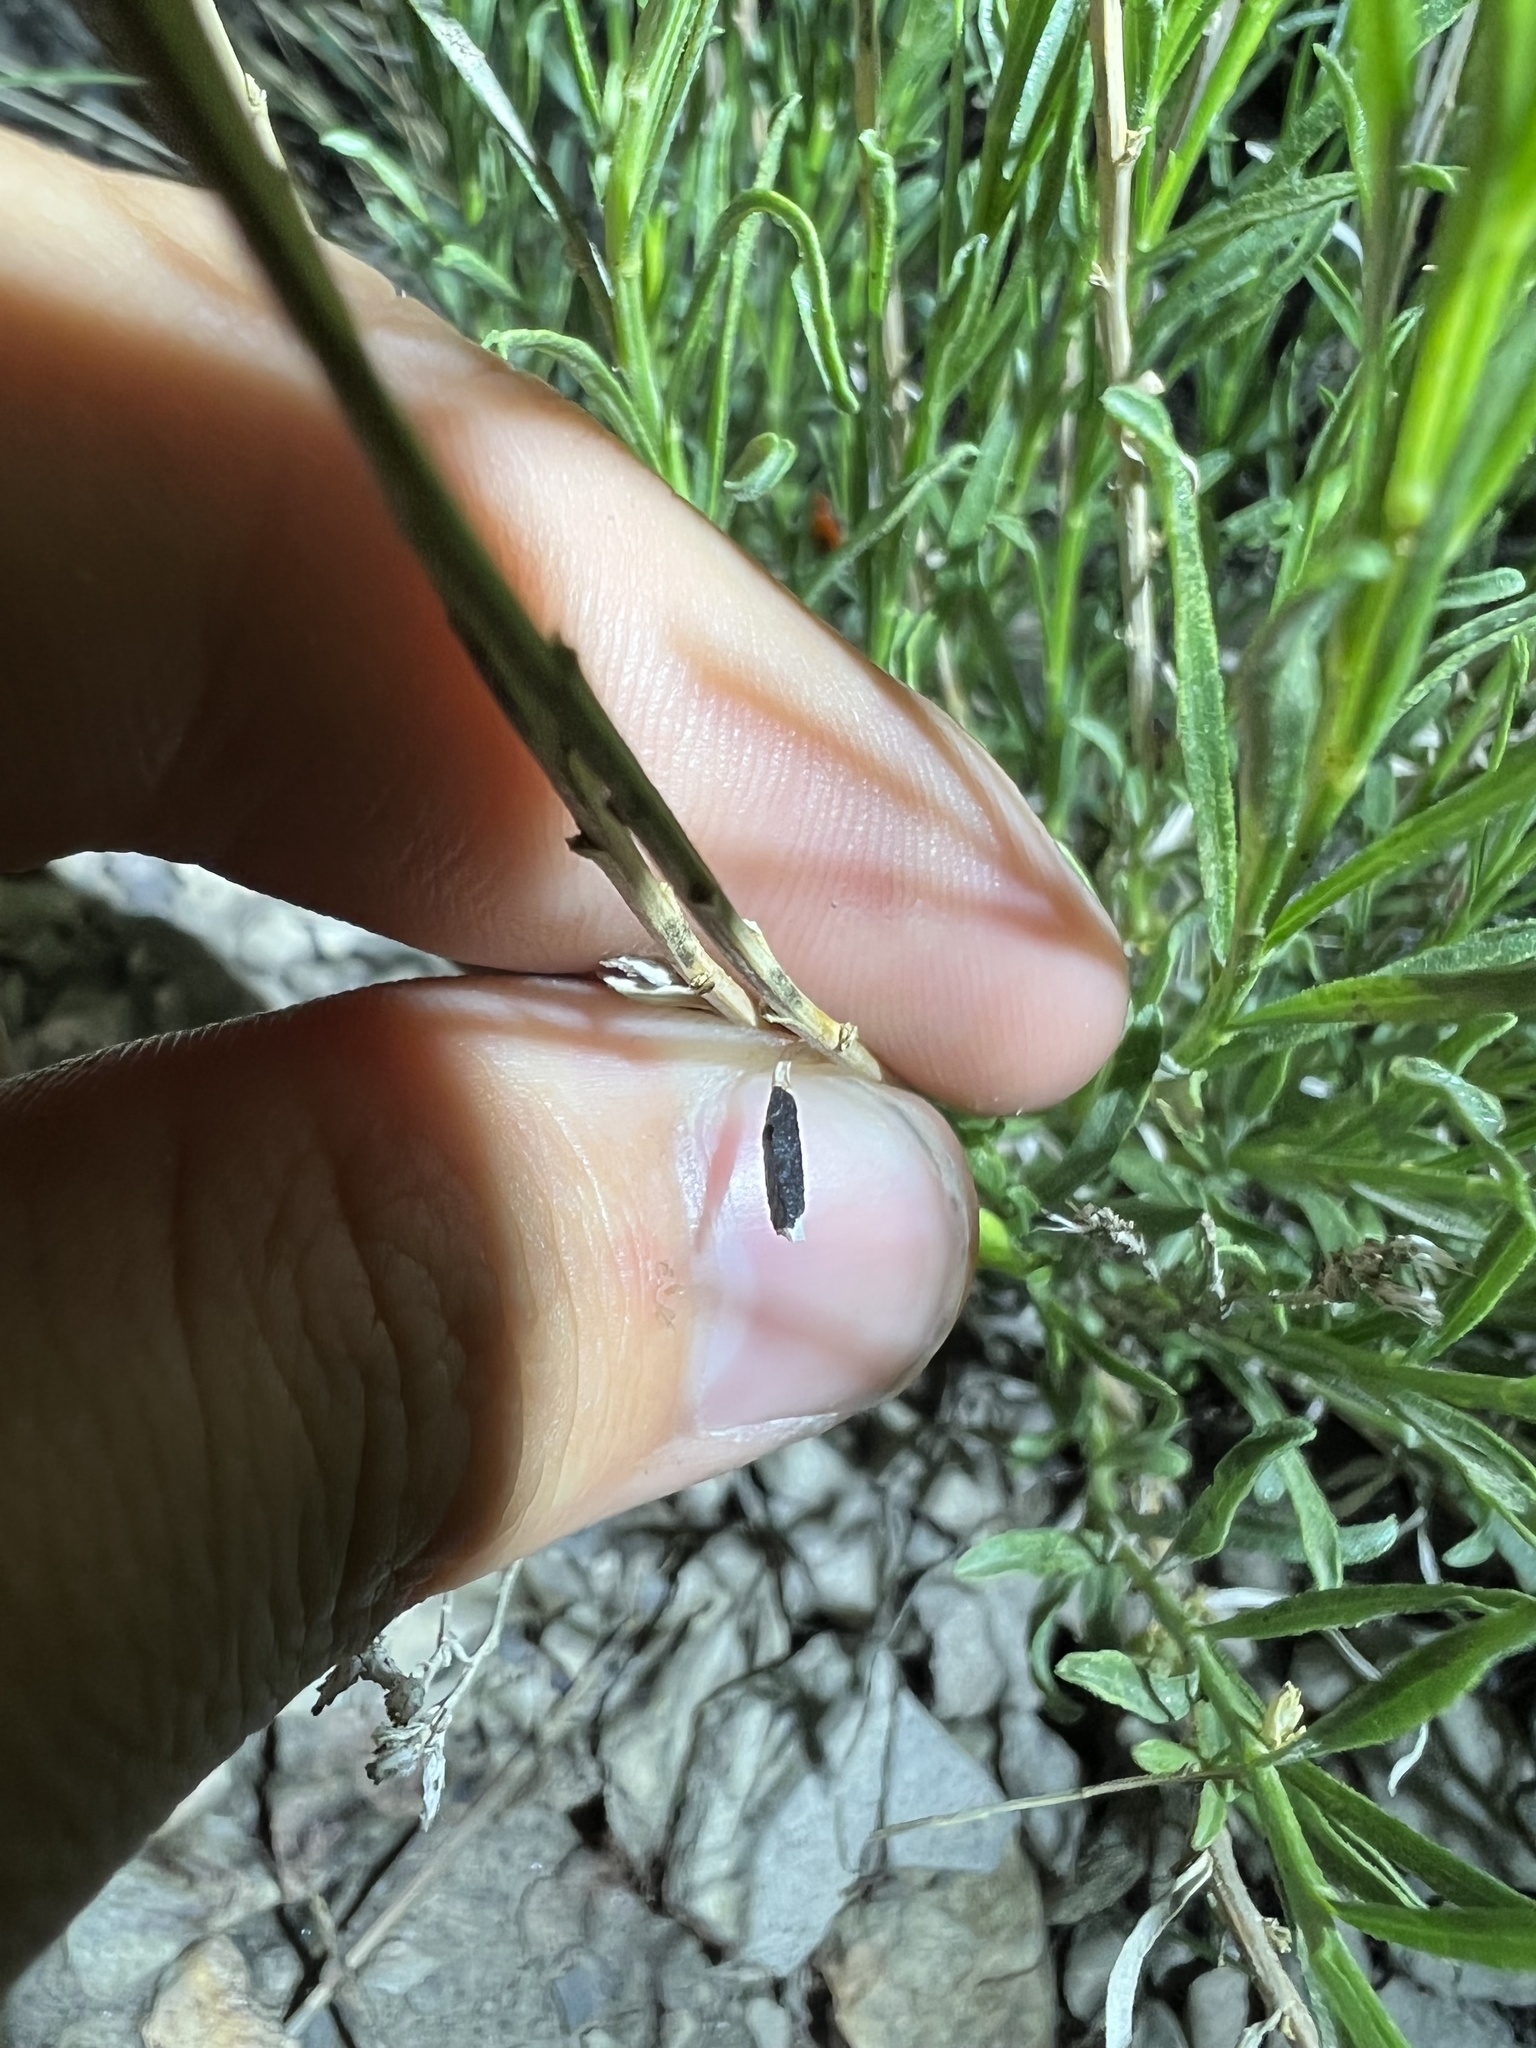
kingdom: Animalia
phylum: Arthropoda
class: Insecta
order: Diptera
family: Cecidomyiidae
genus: Asteromyia
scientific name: Asteromyia gutierreziae
